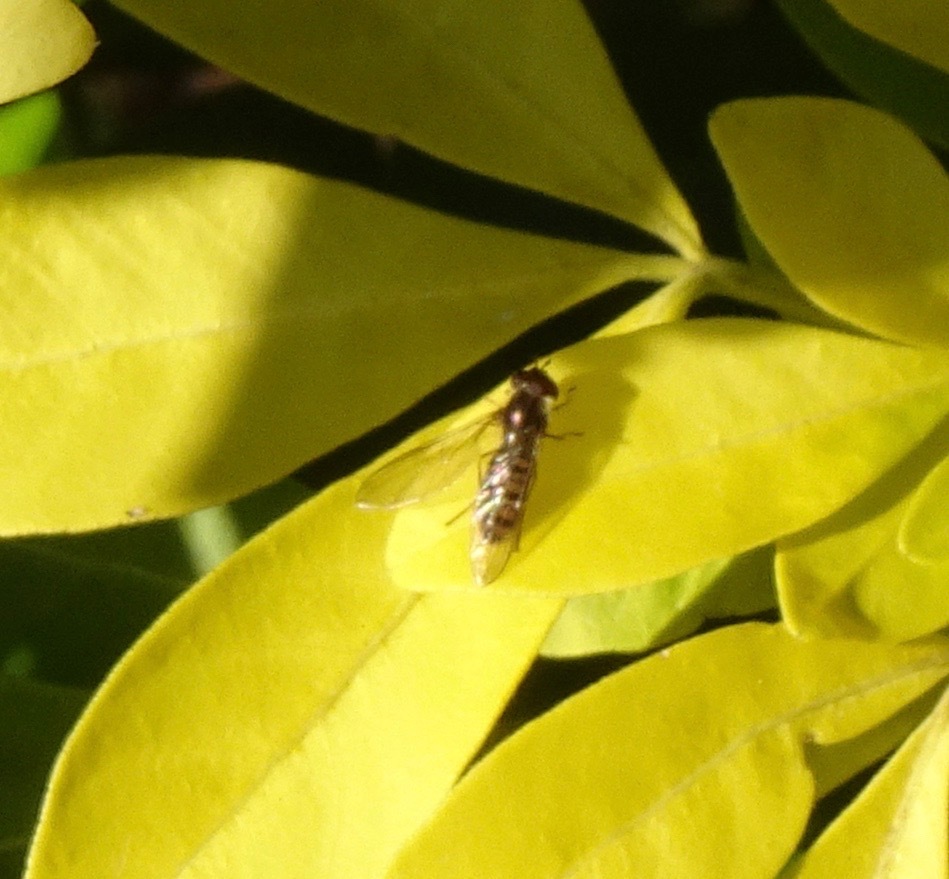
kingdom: Animalia
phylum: Arthropoda
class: Insecta
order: Diptera
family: Syrphidae
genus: Episyrphus
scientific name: Episyrphus balteatus
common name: Marmalade hoverfly
